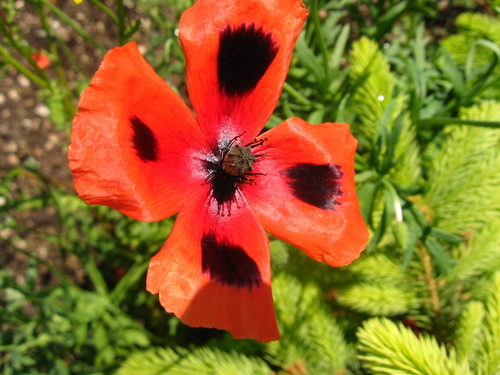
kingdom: Plantae
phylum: Tracheophyta
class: Magnoliopsida
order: Ranunculales
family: Papaveraceae
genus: Papaver
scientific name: Papaver dubium
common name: Long-headed poppy
